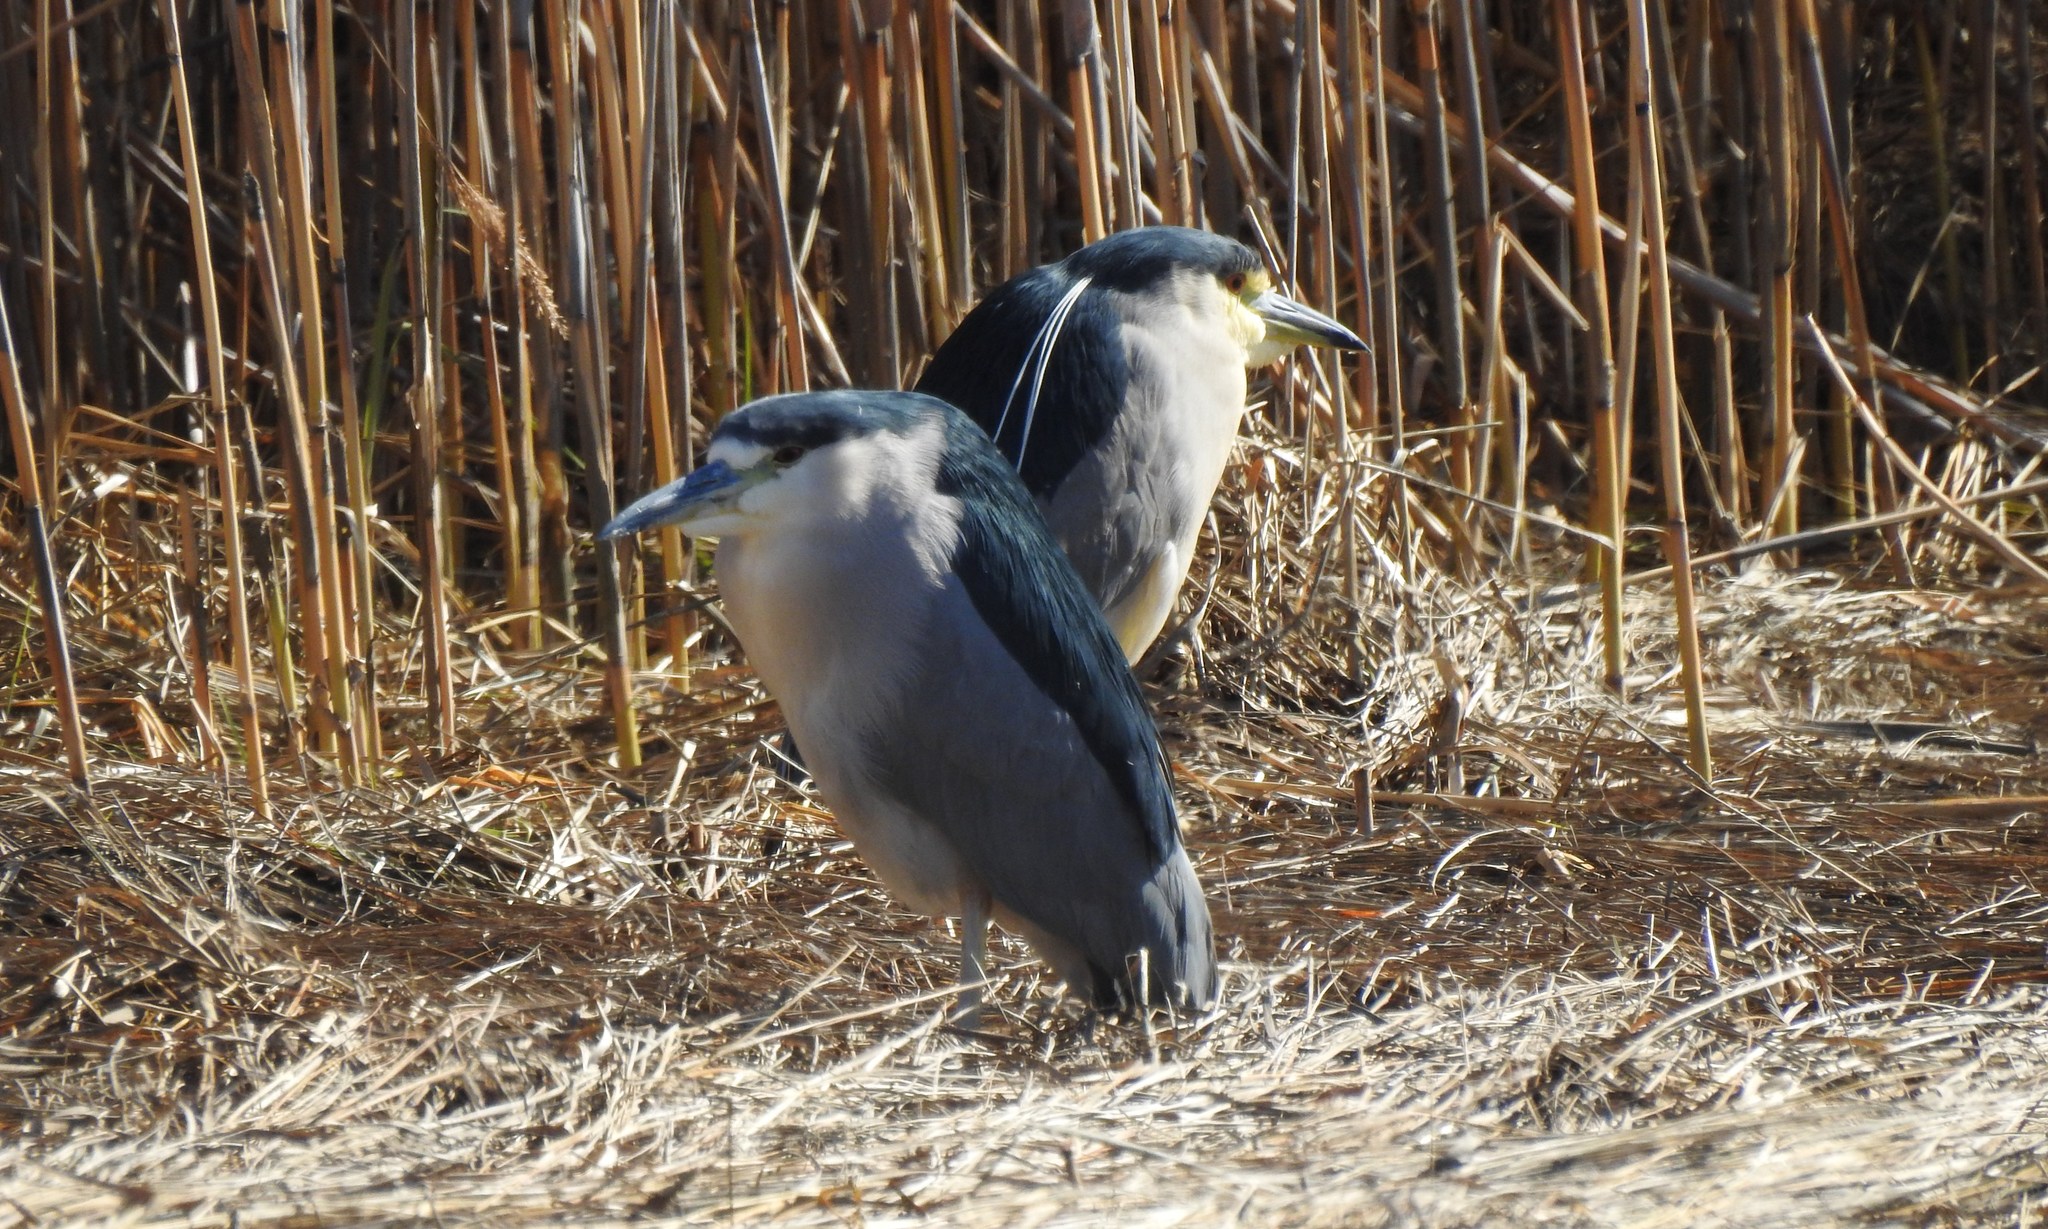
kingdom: Animalia
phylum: Chordata
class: Aves
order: Pelecaniformes
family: Ardeidae
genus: Nycticorax
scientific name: Nycticorax nycticorax
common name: Black-crowned night heron
